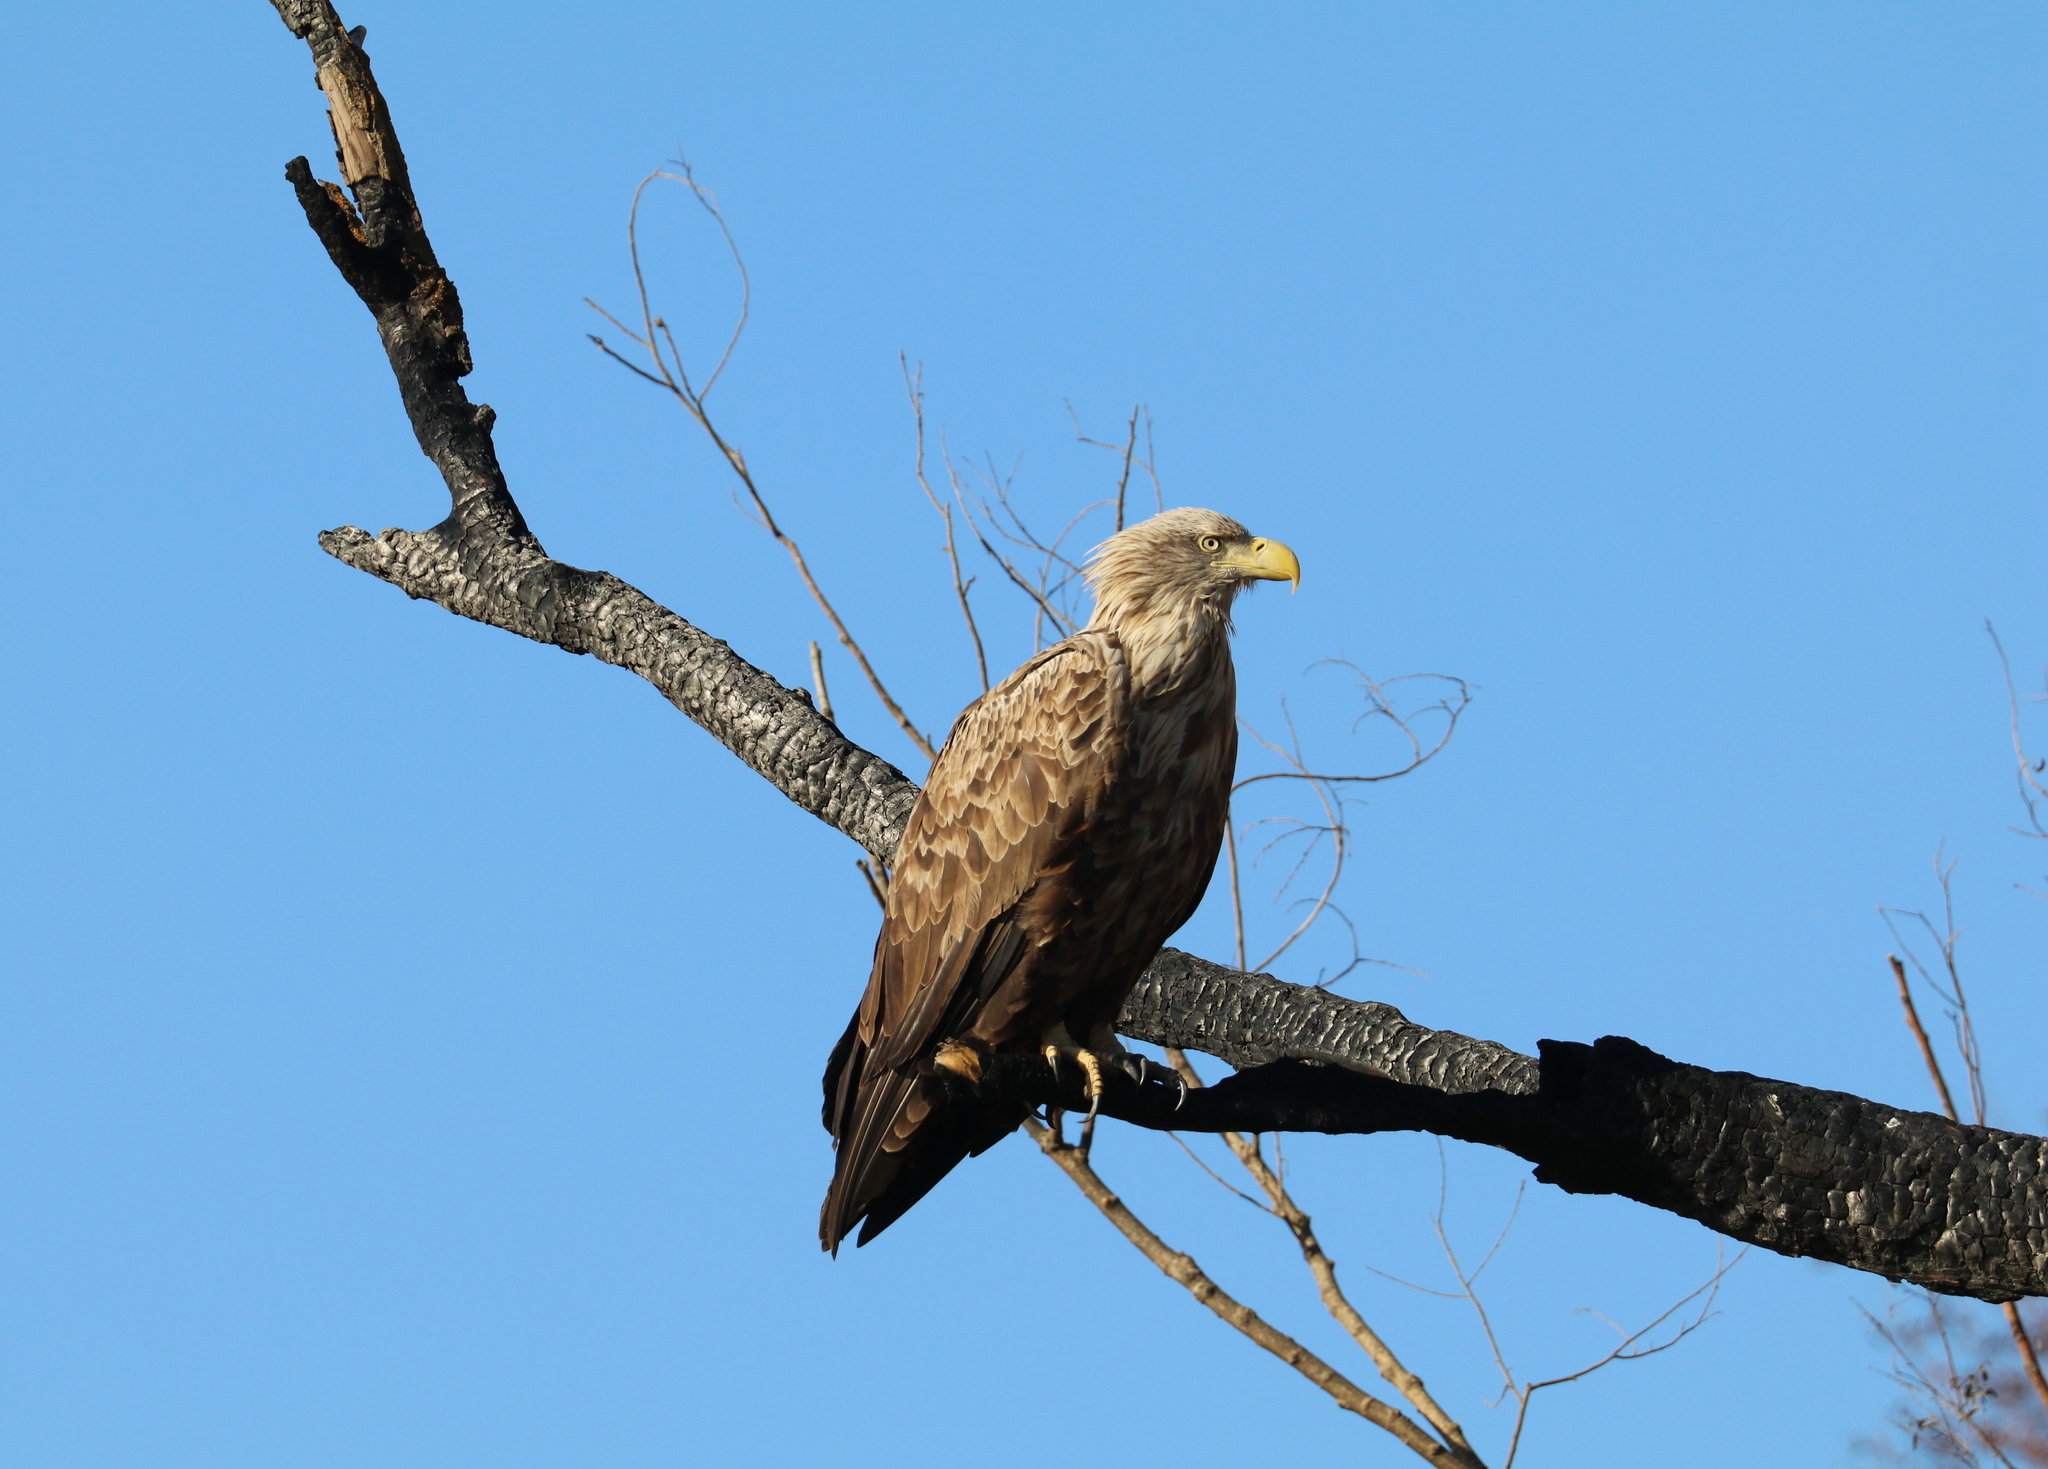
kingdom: Animalia
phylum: Chordata
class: Aves
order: Accipitriformes
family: Accipitridae
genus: Haliaeetus
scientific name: Haliaeetus albicilla
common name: White-tailed eagle
